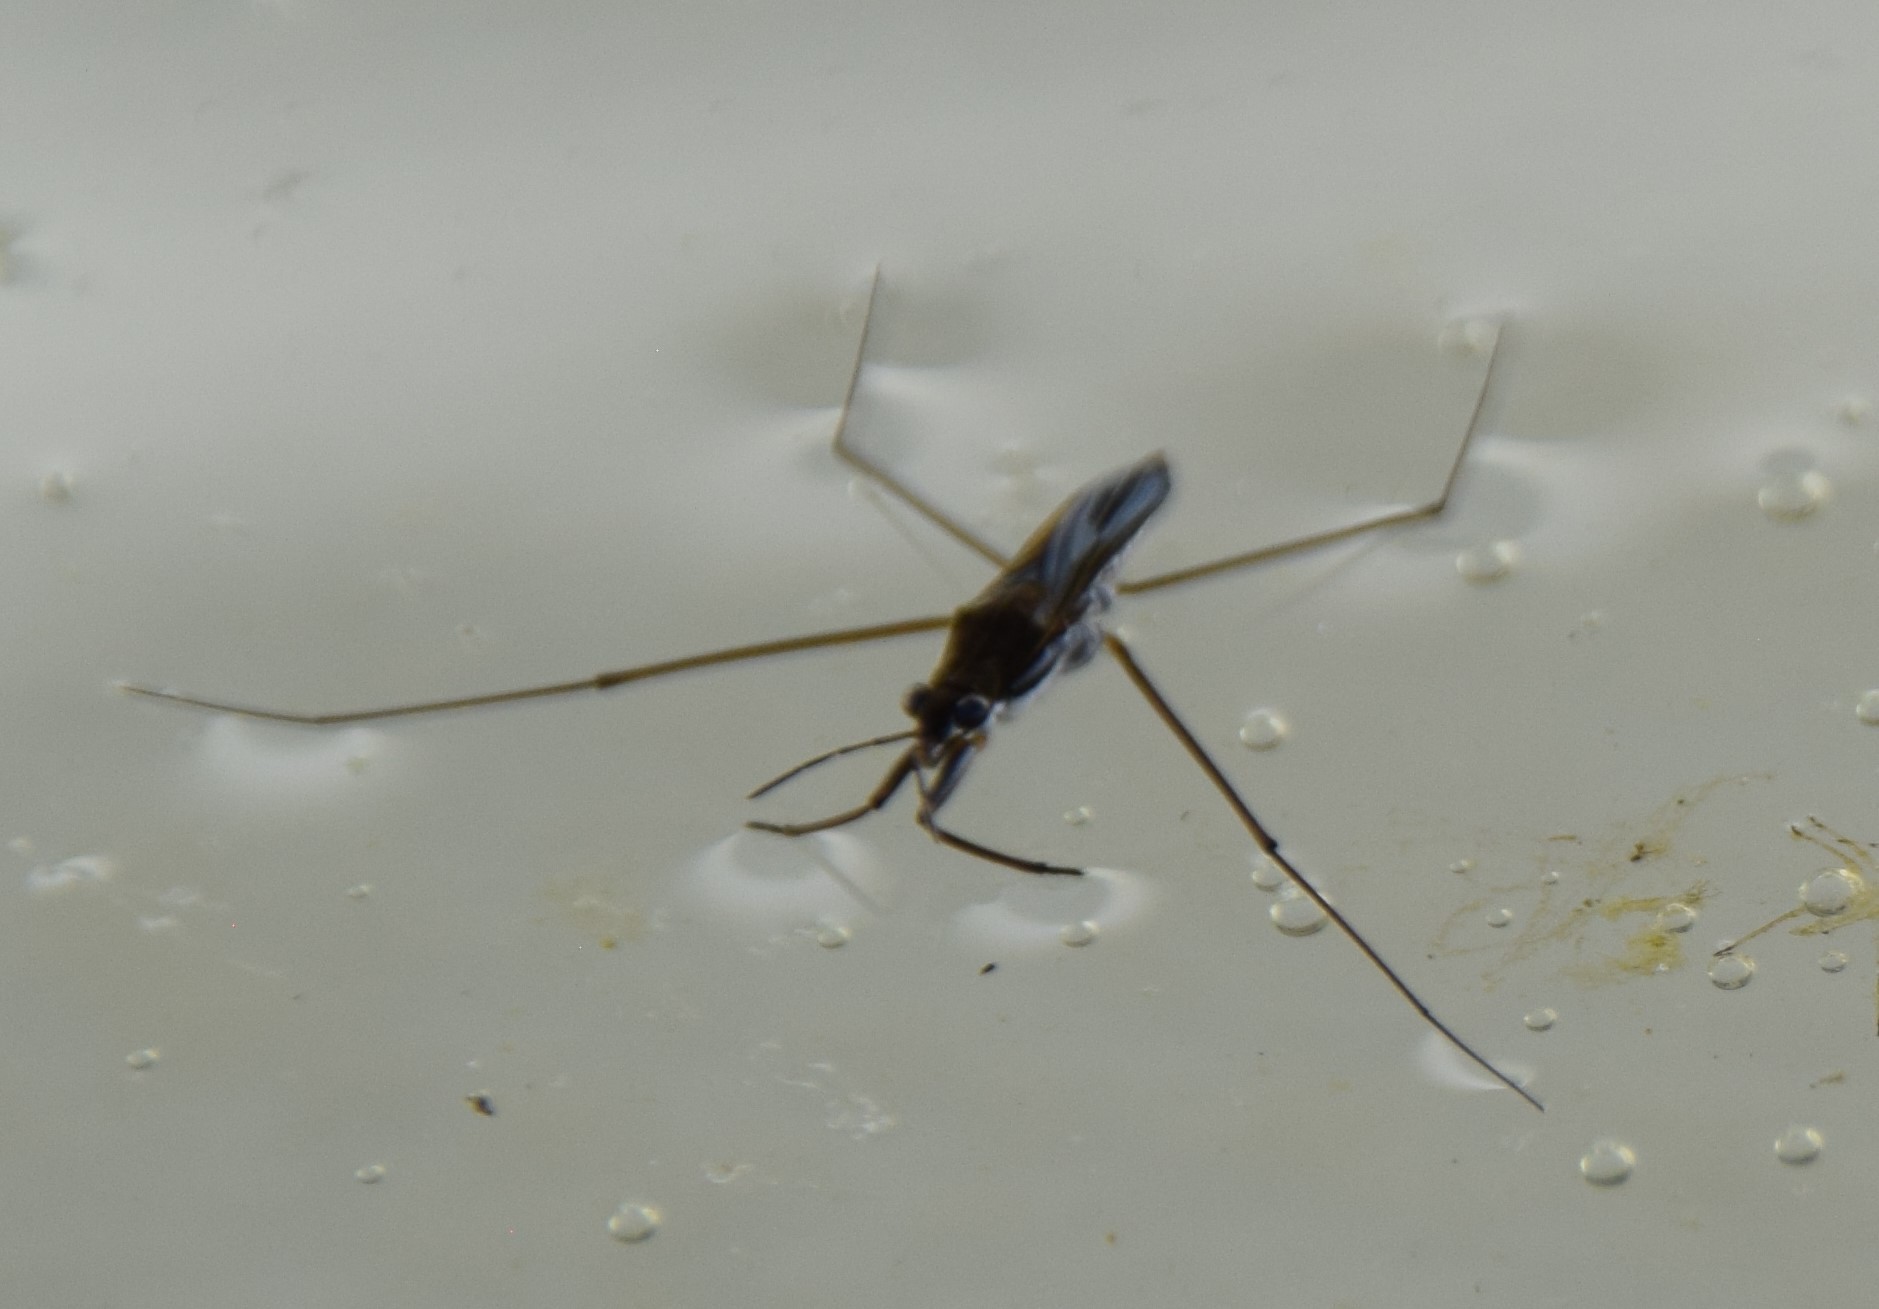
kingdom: Animalia
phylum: Arthropoda
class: Insecta
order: Hemiptera
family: Gerridae
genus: Gerris
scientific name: Gerris
